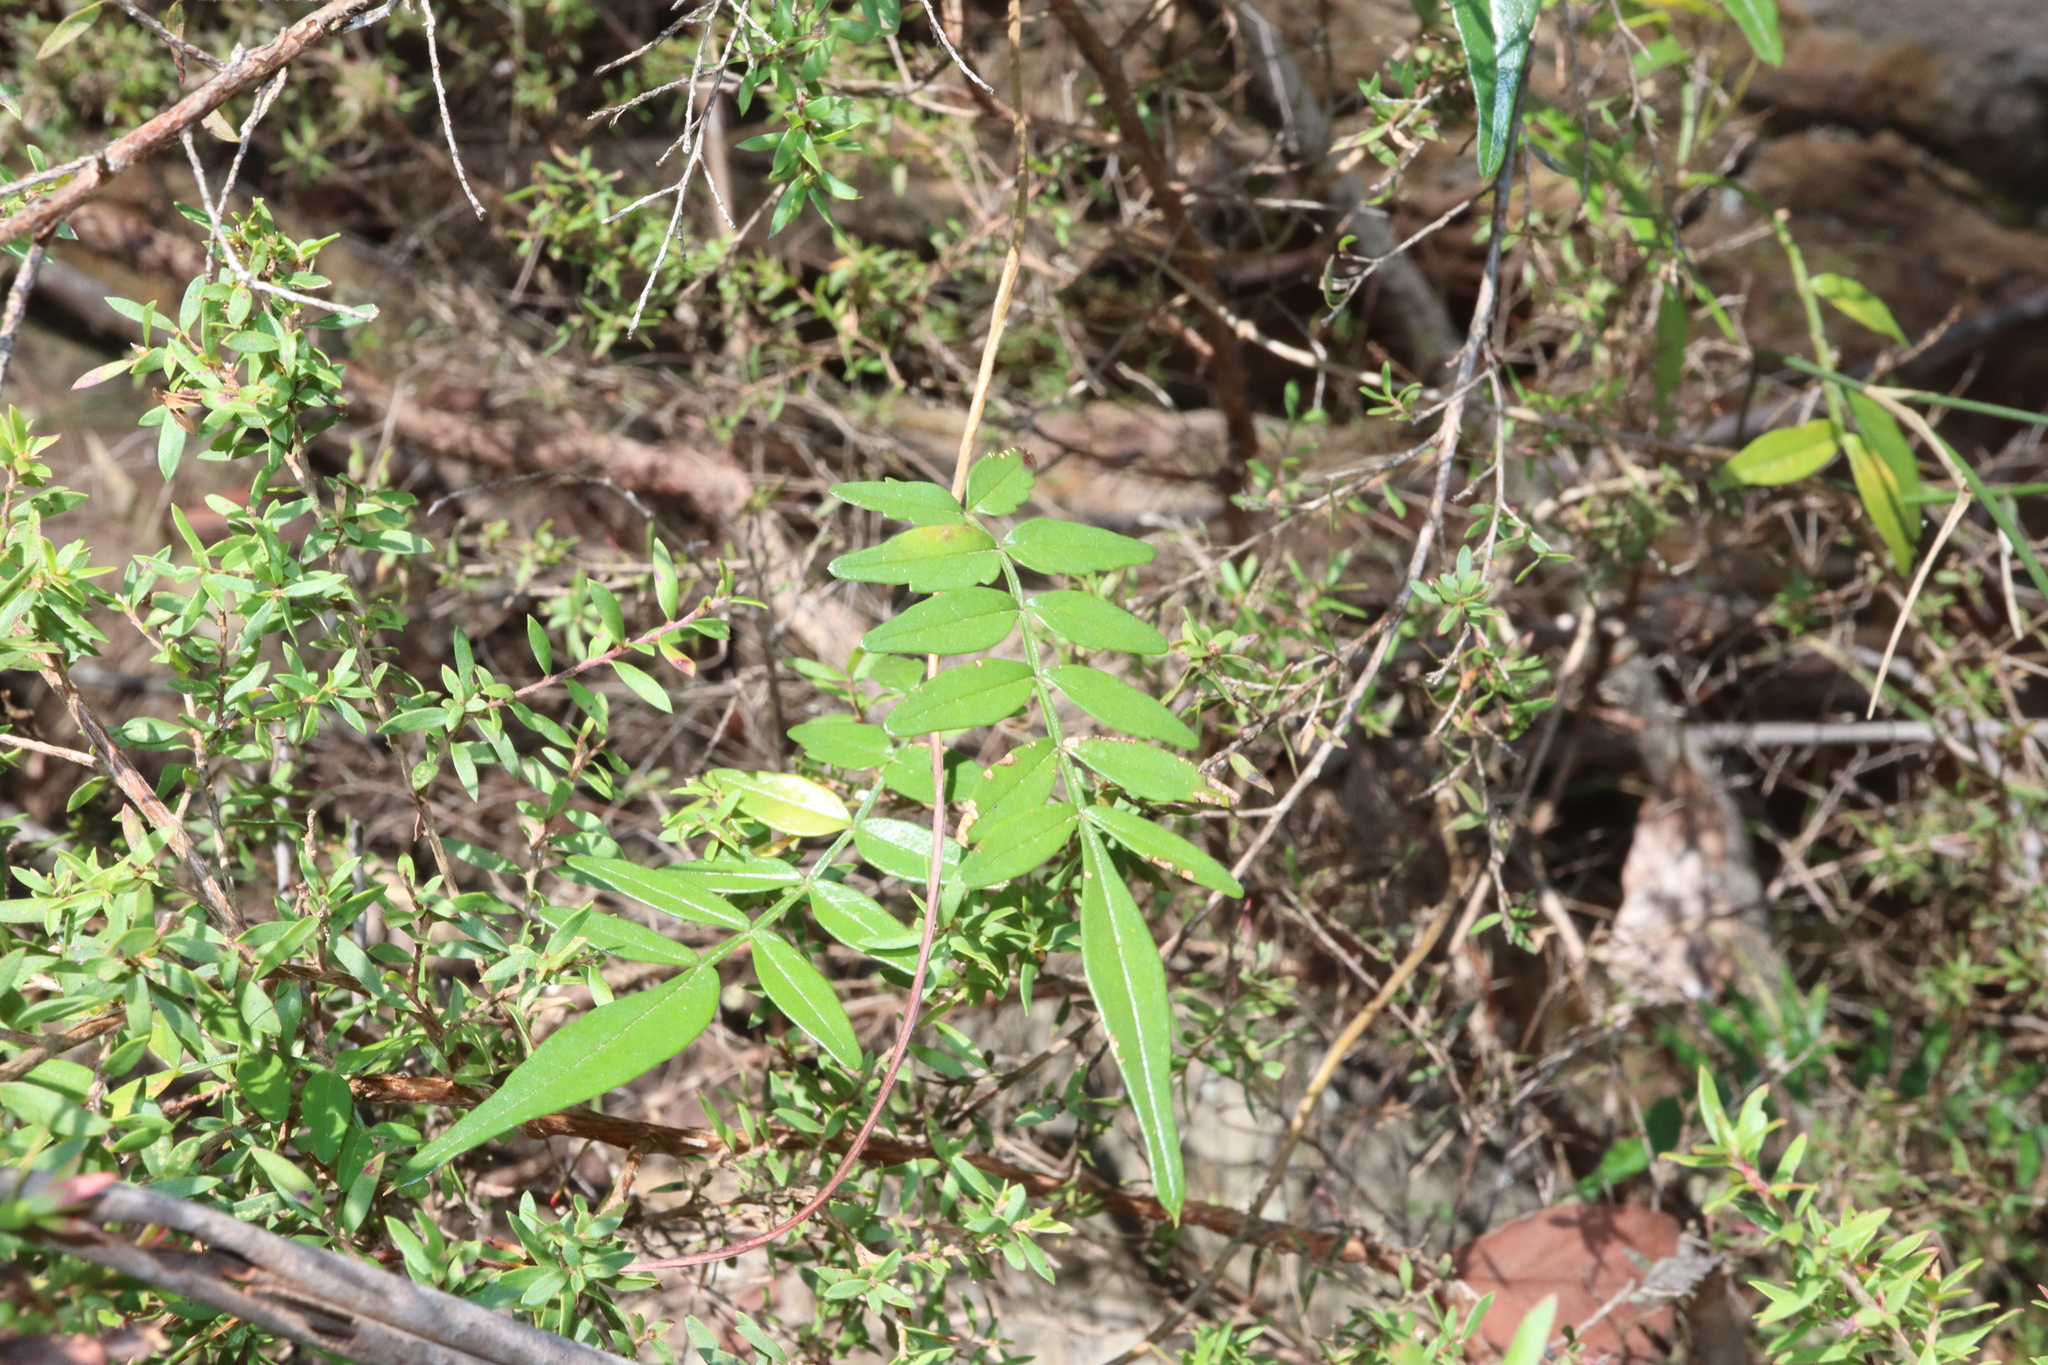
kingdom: Plantae
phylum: Tracheophyta
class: Magnoliopsida
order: Lamiales
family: Bignoniaceae
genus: Pandorea
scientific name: Pandorea pandorana
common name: Wonga-wonga-vine
